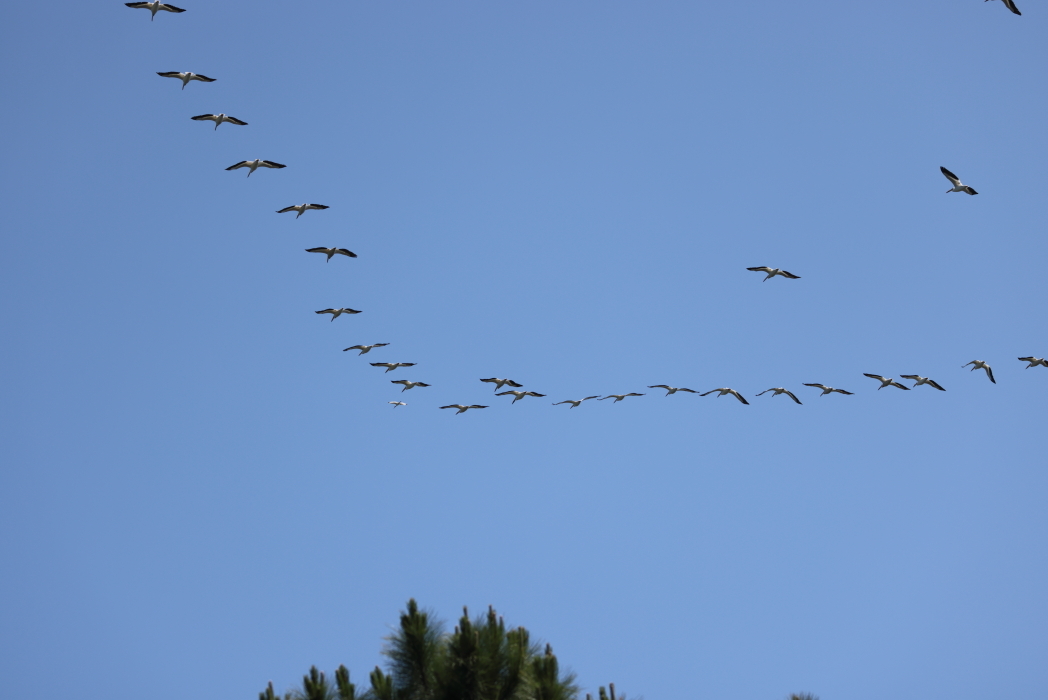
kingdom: Animalia
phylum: Chordata
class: Aves
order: Pelecaniformes
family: Pelecanidae
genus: Pelecanus
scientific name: Pelecanus erythrorhynchos
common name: American white pelican
